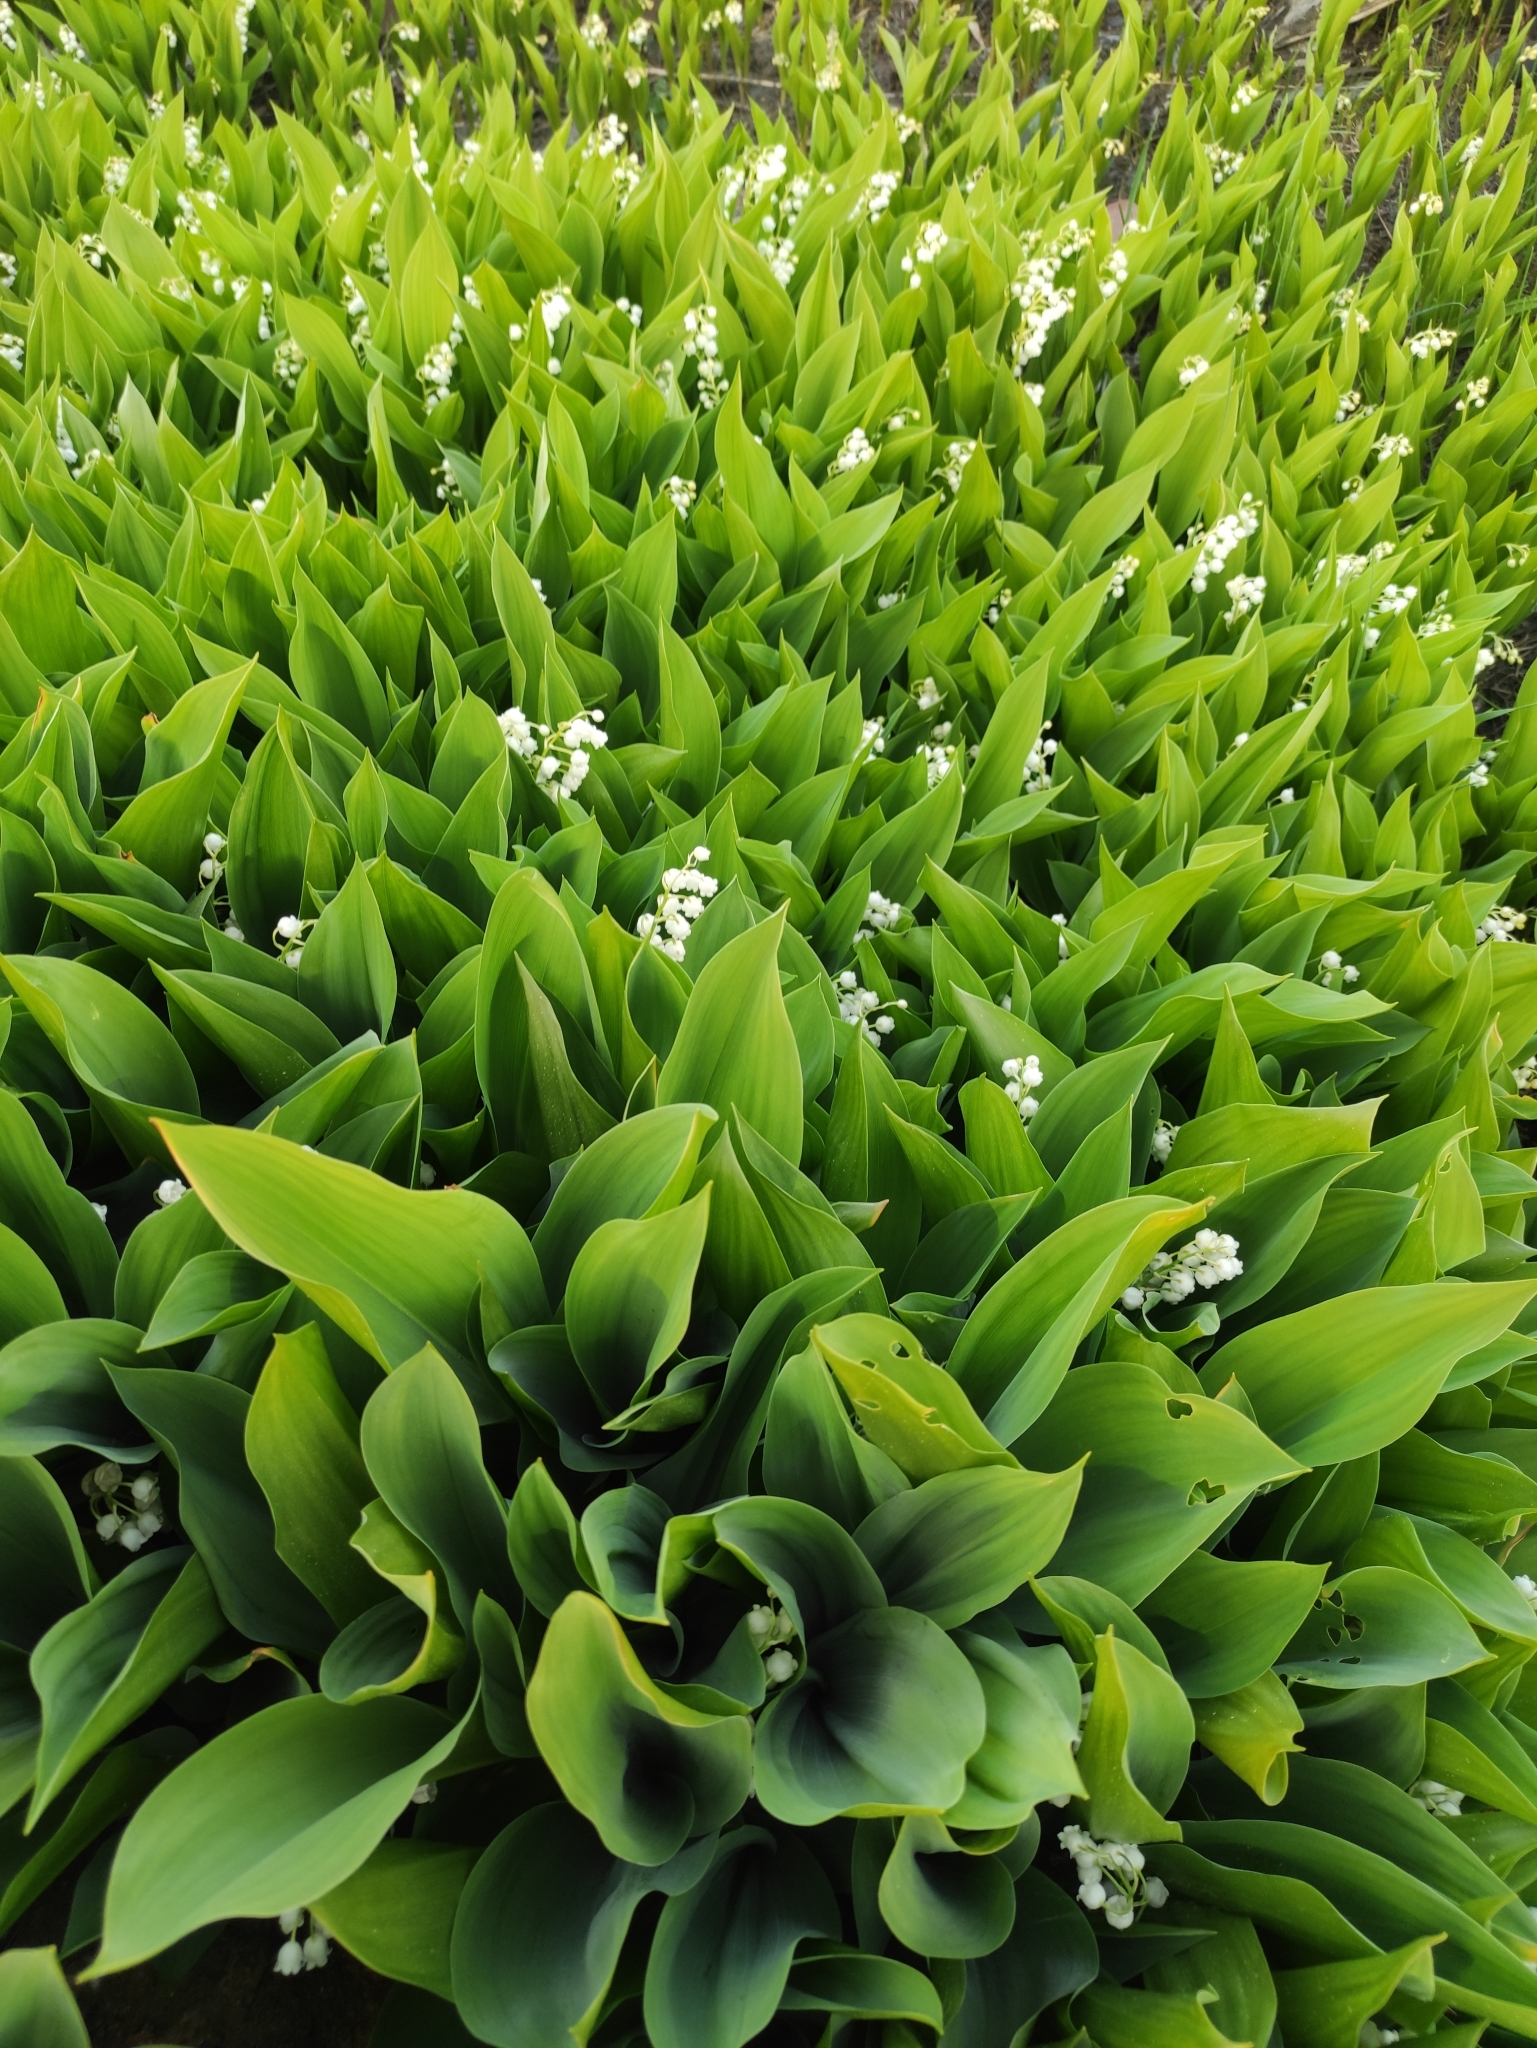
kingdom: Plantae
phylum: Tracheophyta
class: Liliopsida
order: Asparagales
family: Asparagaceae
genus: Convallaria
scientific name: Convallaria majalis
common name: Lily-of-the-valley
